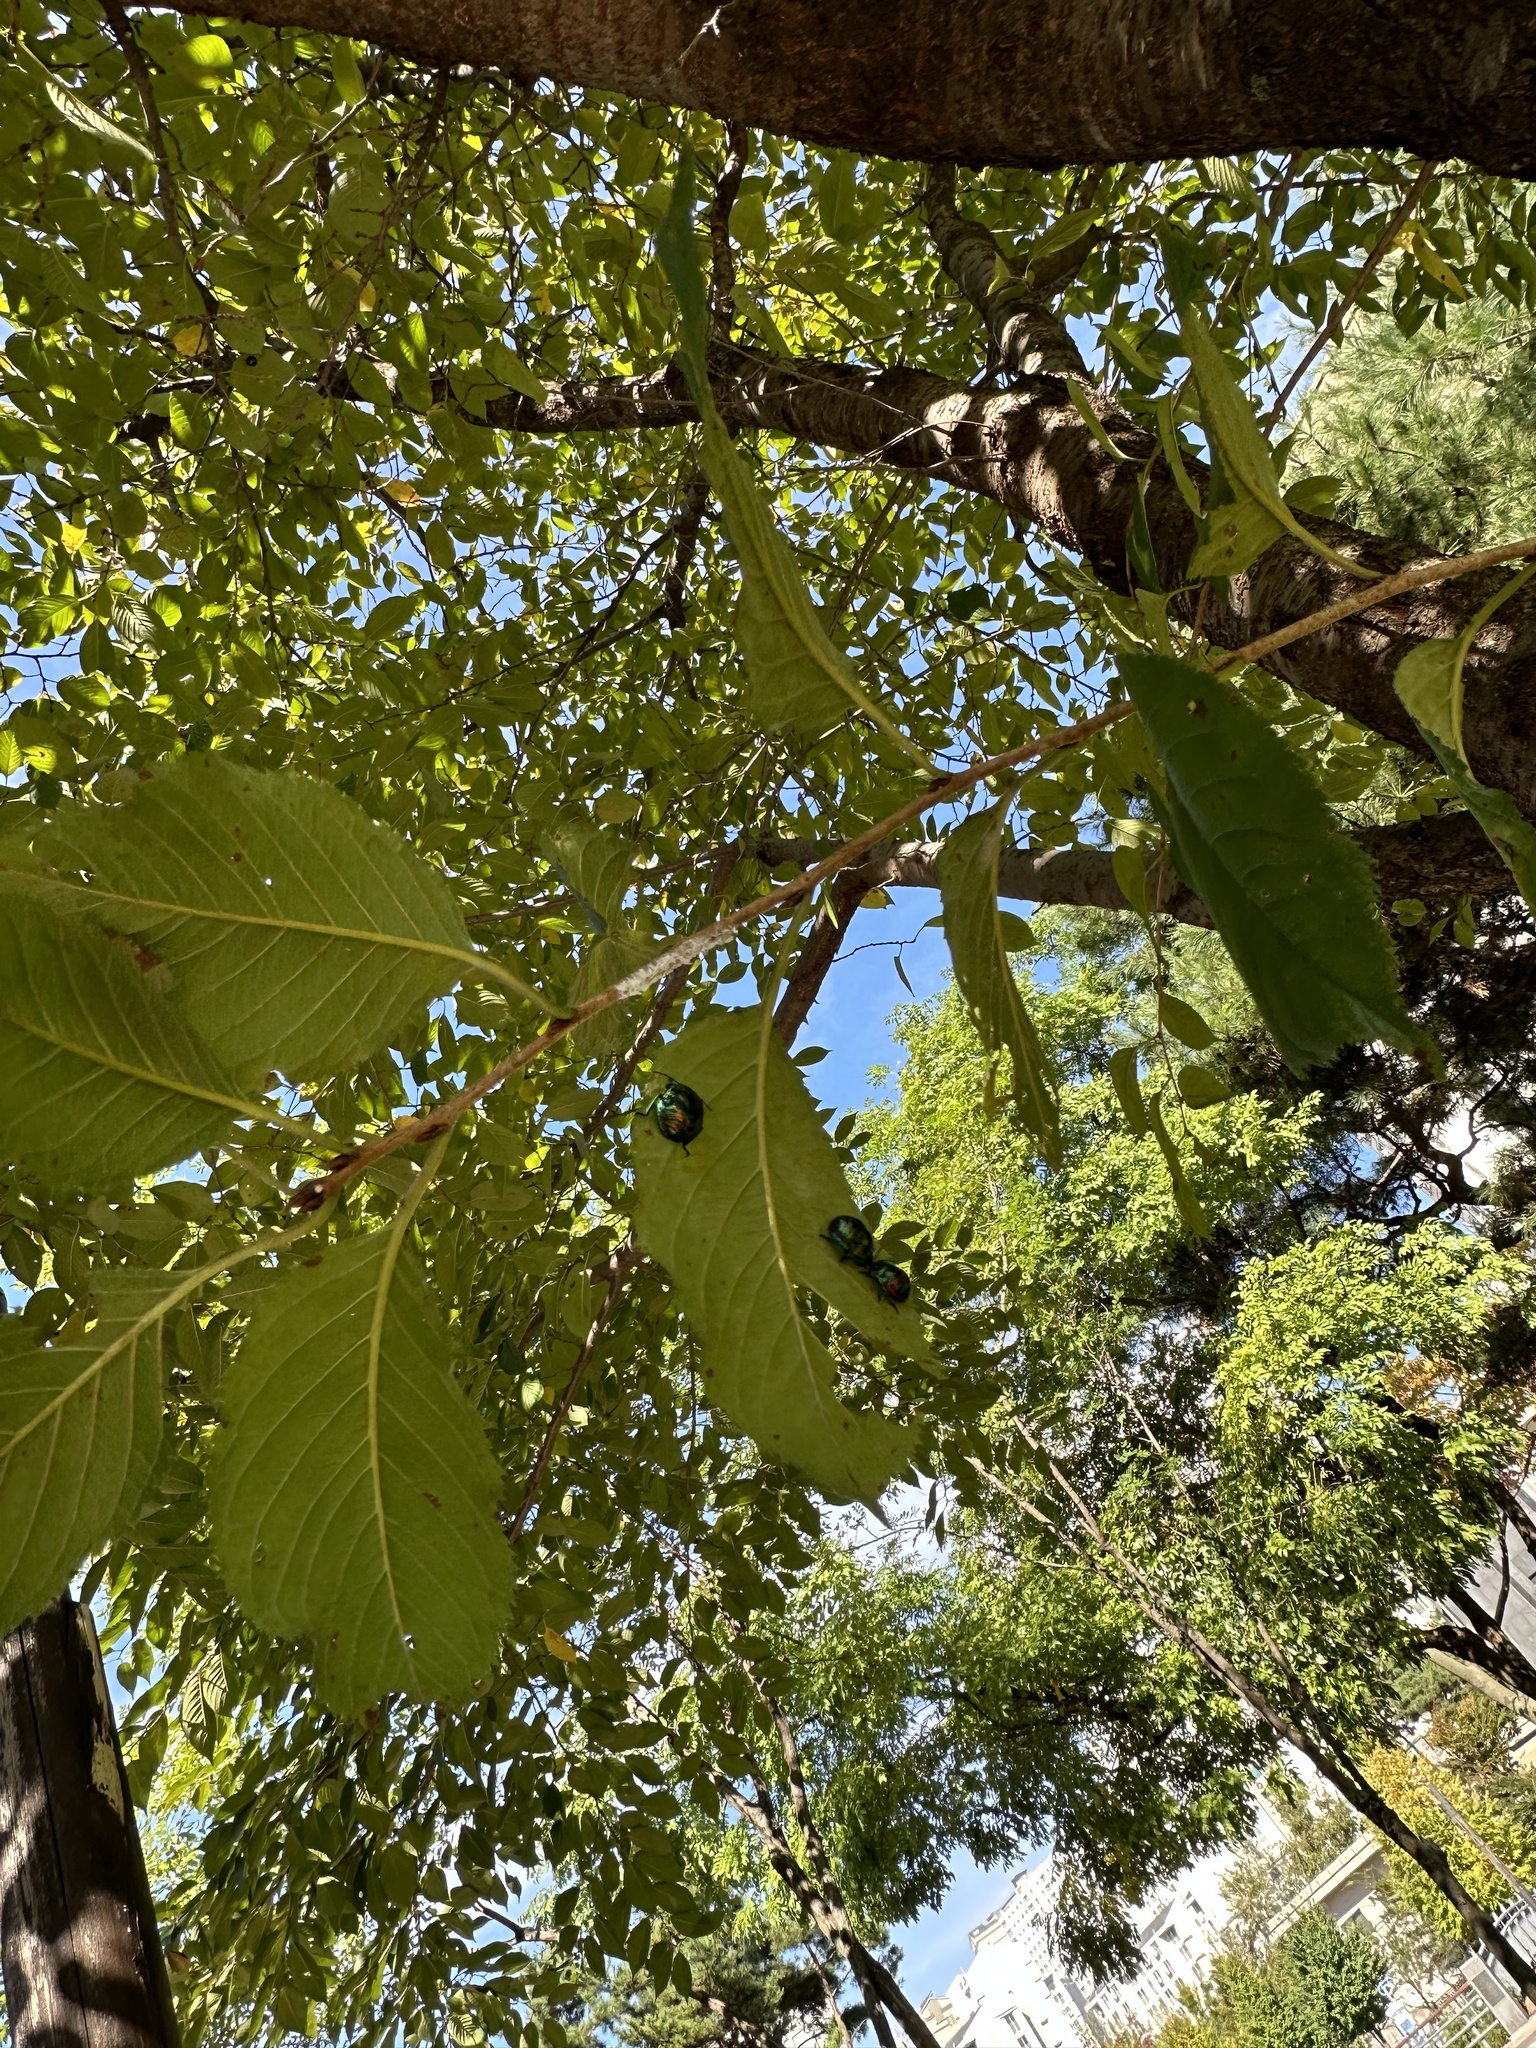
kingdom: Animalia
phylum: Arthropoda
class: Insecta
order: Hemiptera
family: Scutelleridae
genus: Poecilocoris
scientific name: Poecilocoris
